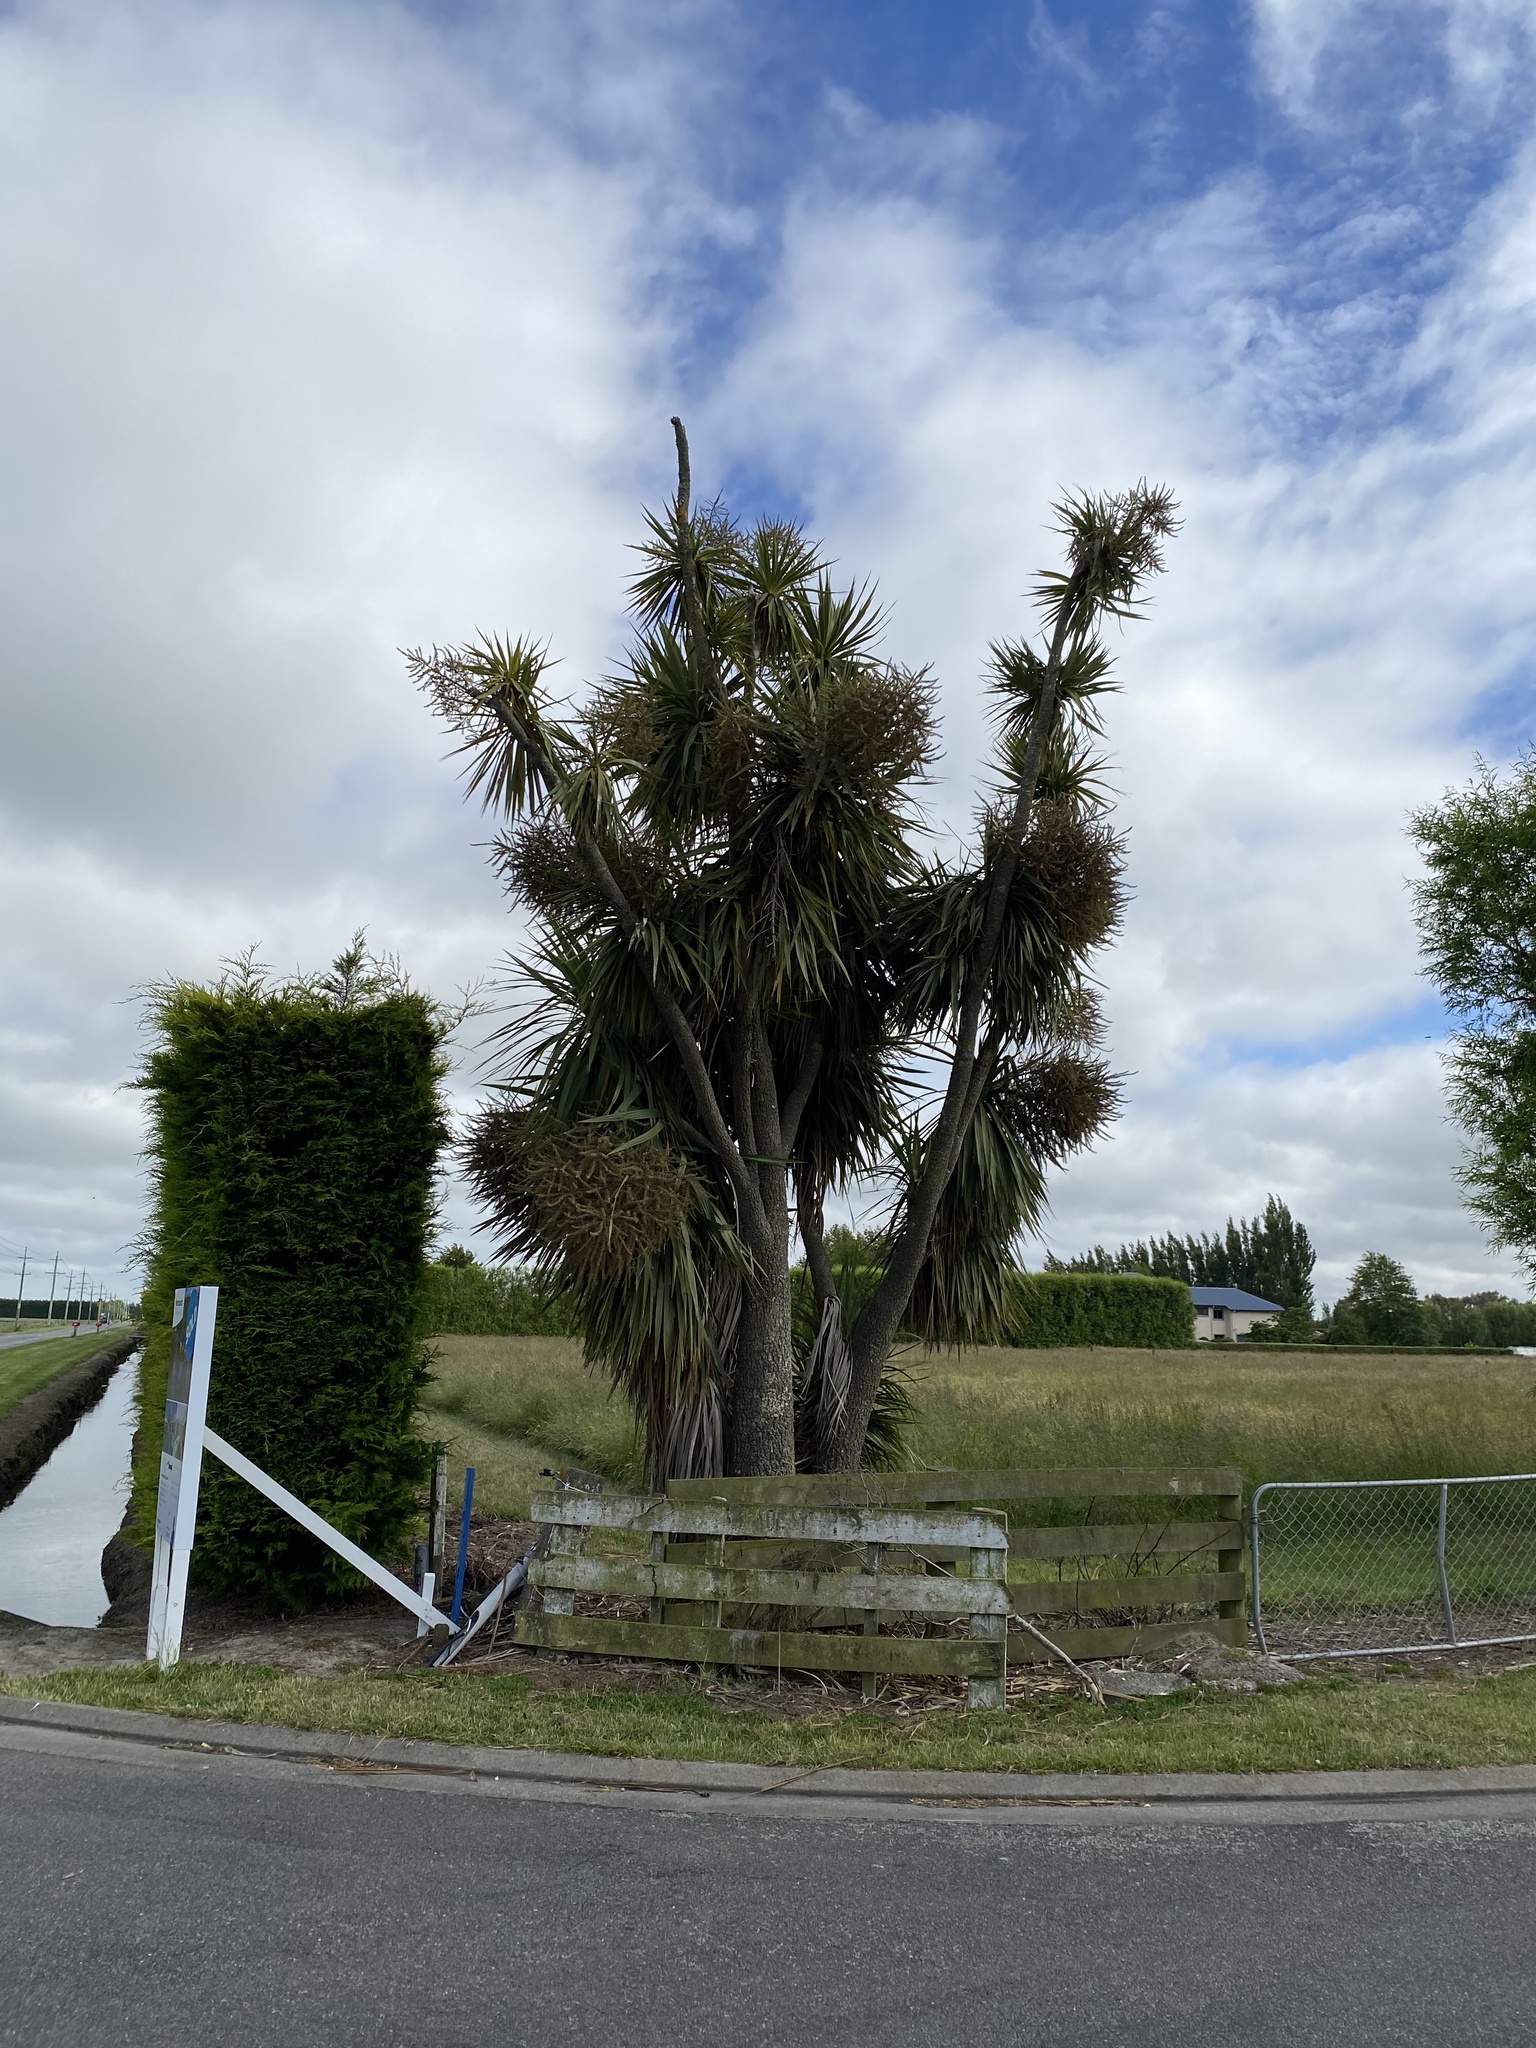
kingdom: Plantae
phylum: Tracheophyta
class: Liliopsida
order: Asparagales
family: Asparagaceae
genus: Cordyline
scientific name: Cordyline australis
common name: Cabbage-palm
